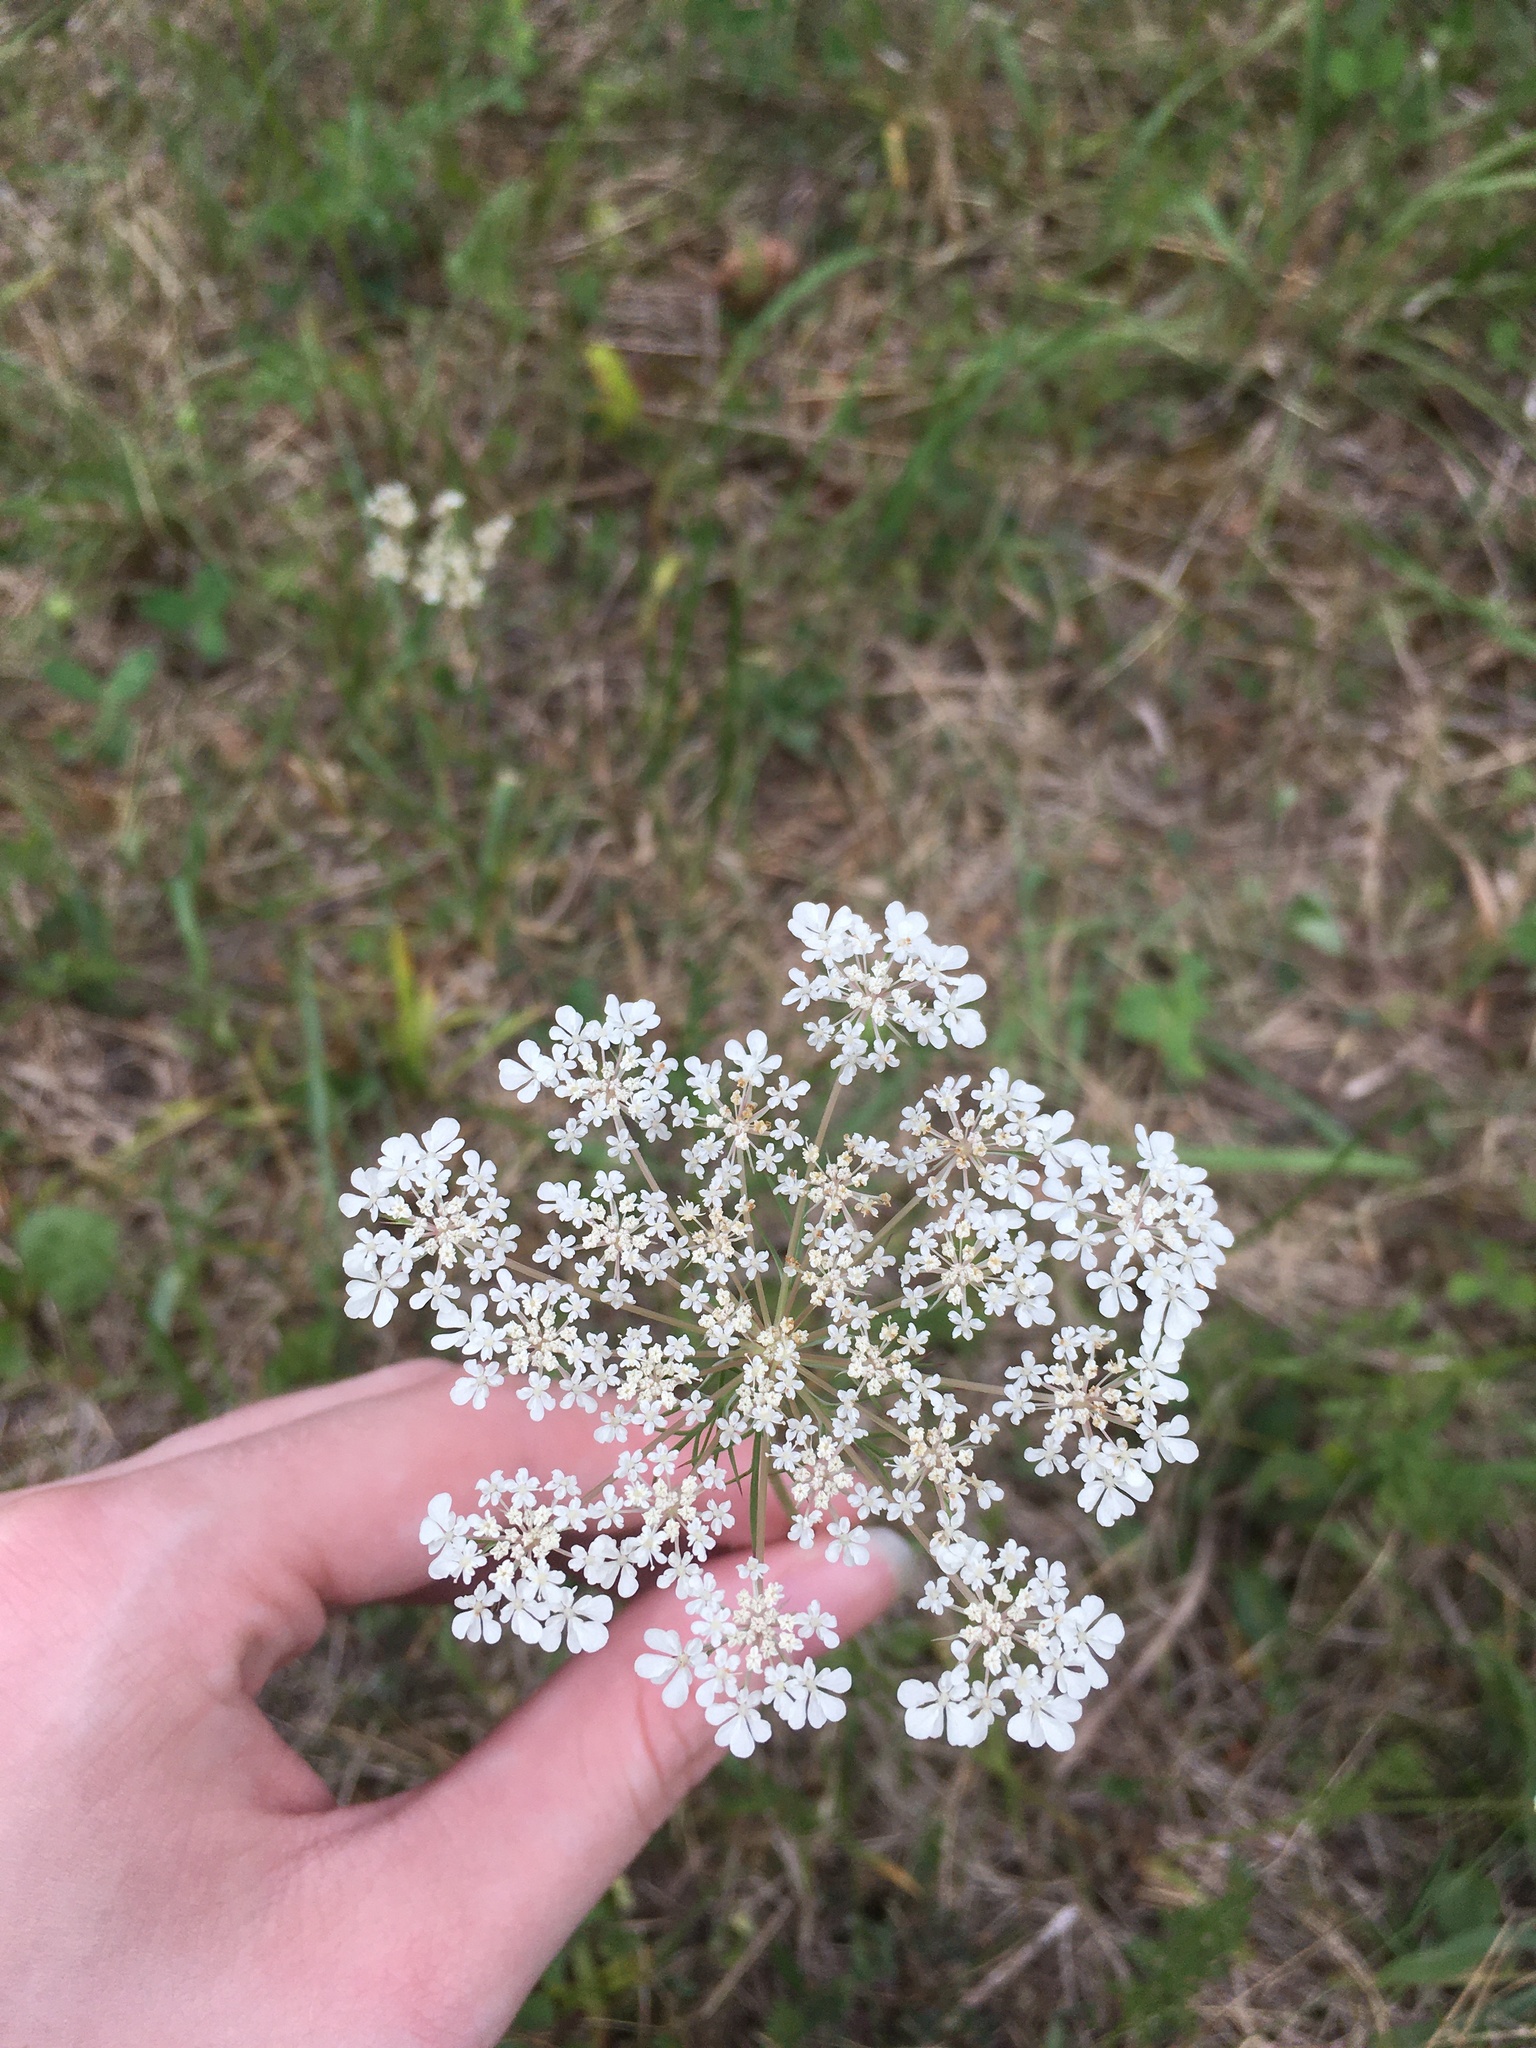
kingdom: Plantae
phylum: Tracheophyta
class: Magnoliopsida
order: Apiales
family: Apiaceae
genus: Daucus
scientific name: Daucus carota
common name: Wild carrot
